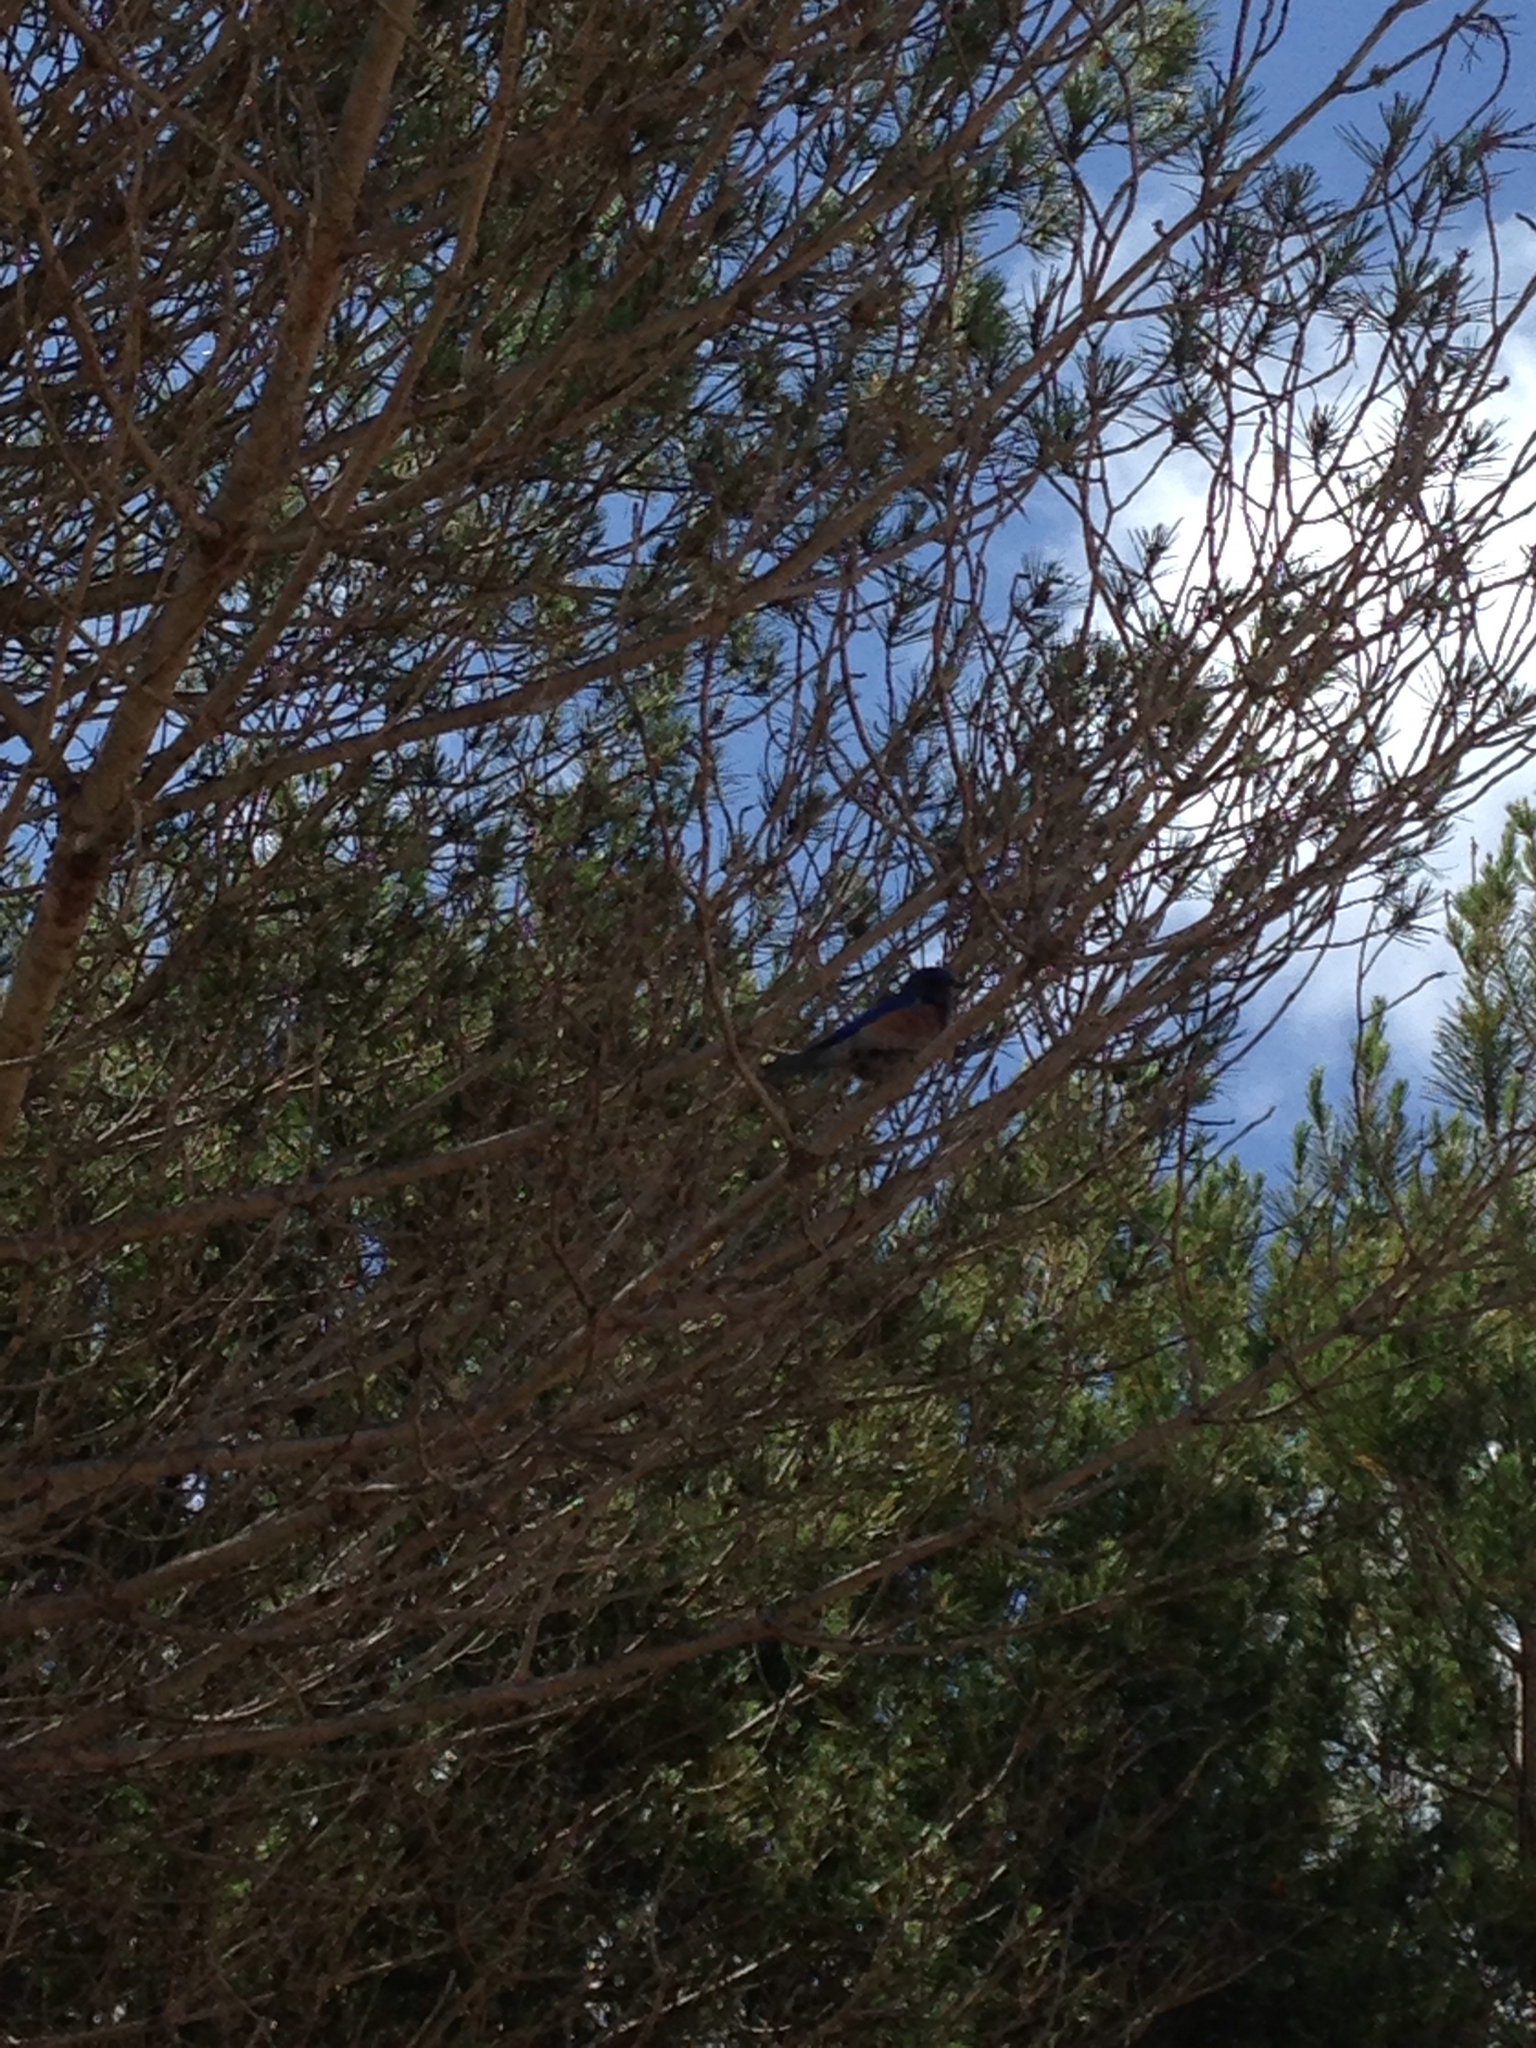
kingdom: Animalia
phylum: Chordata
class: Aves
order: Passeriformes
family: Turdidae
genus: Sialia
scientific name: Sialia mexicana
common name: Western bluebird
